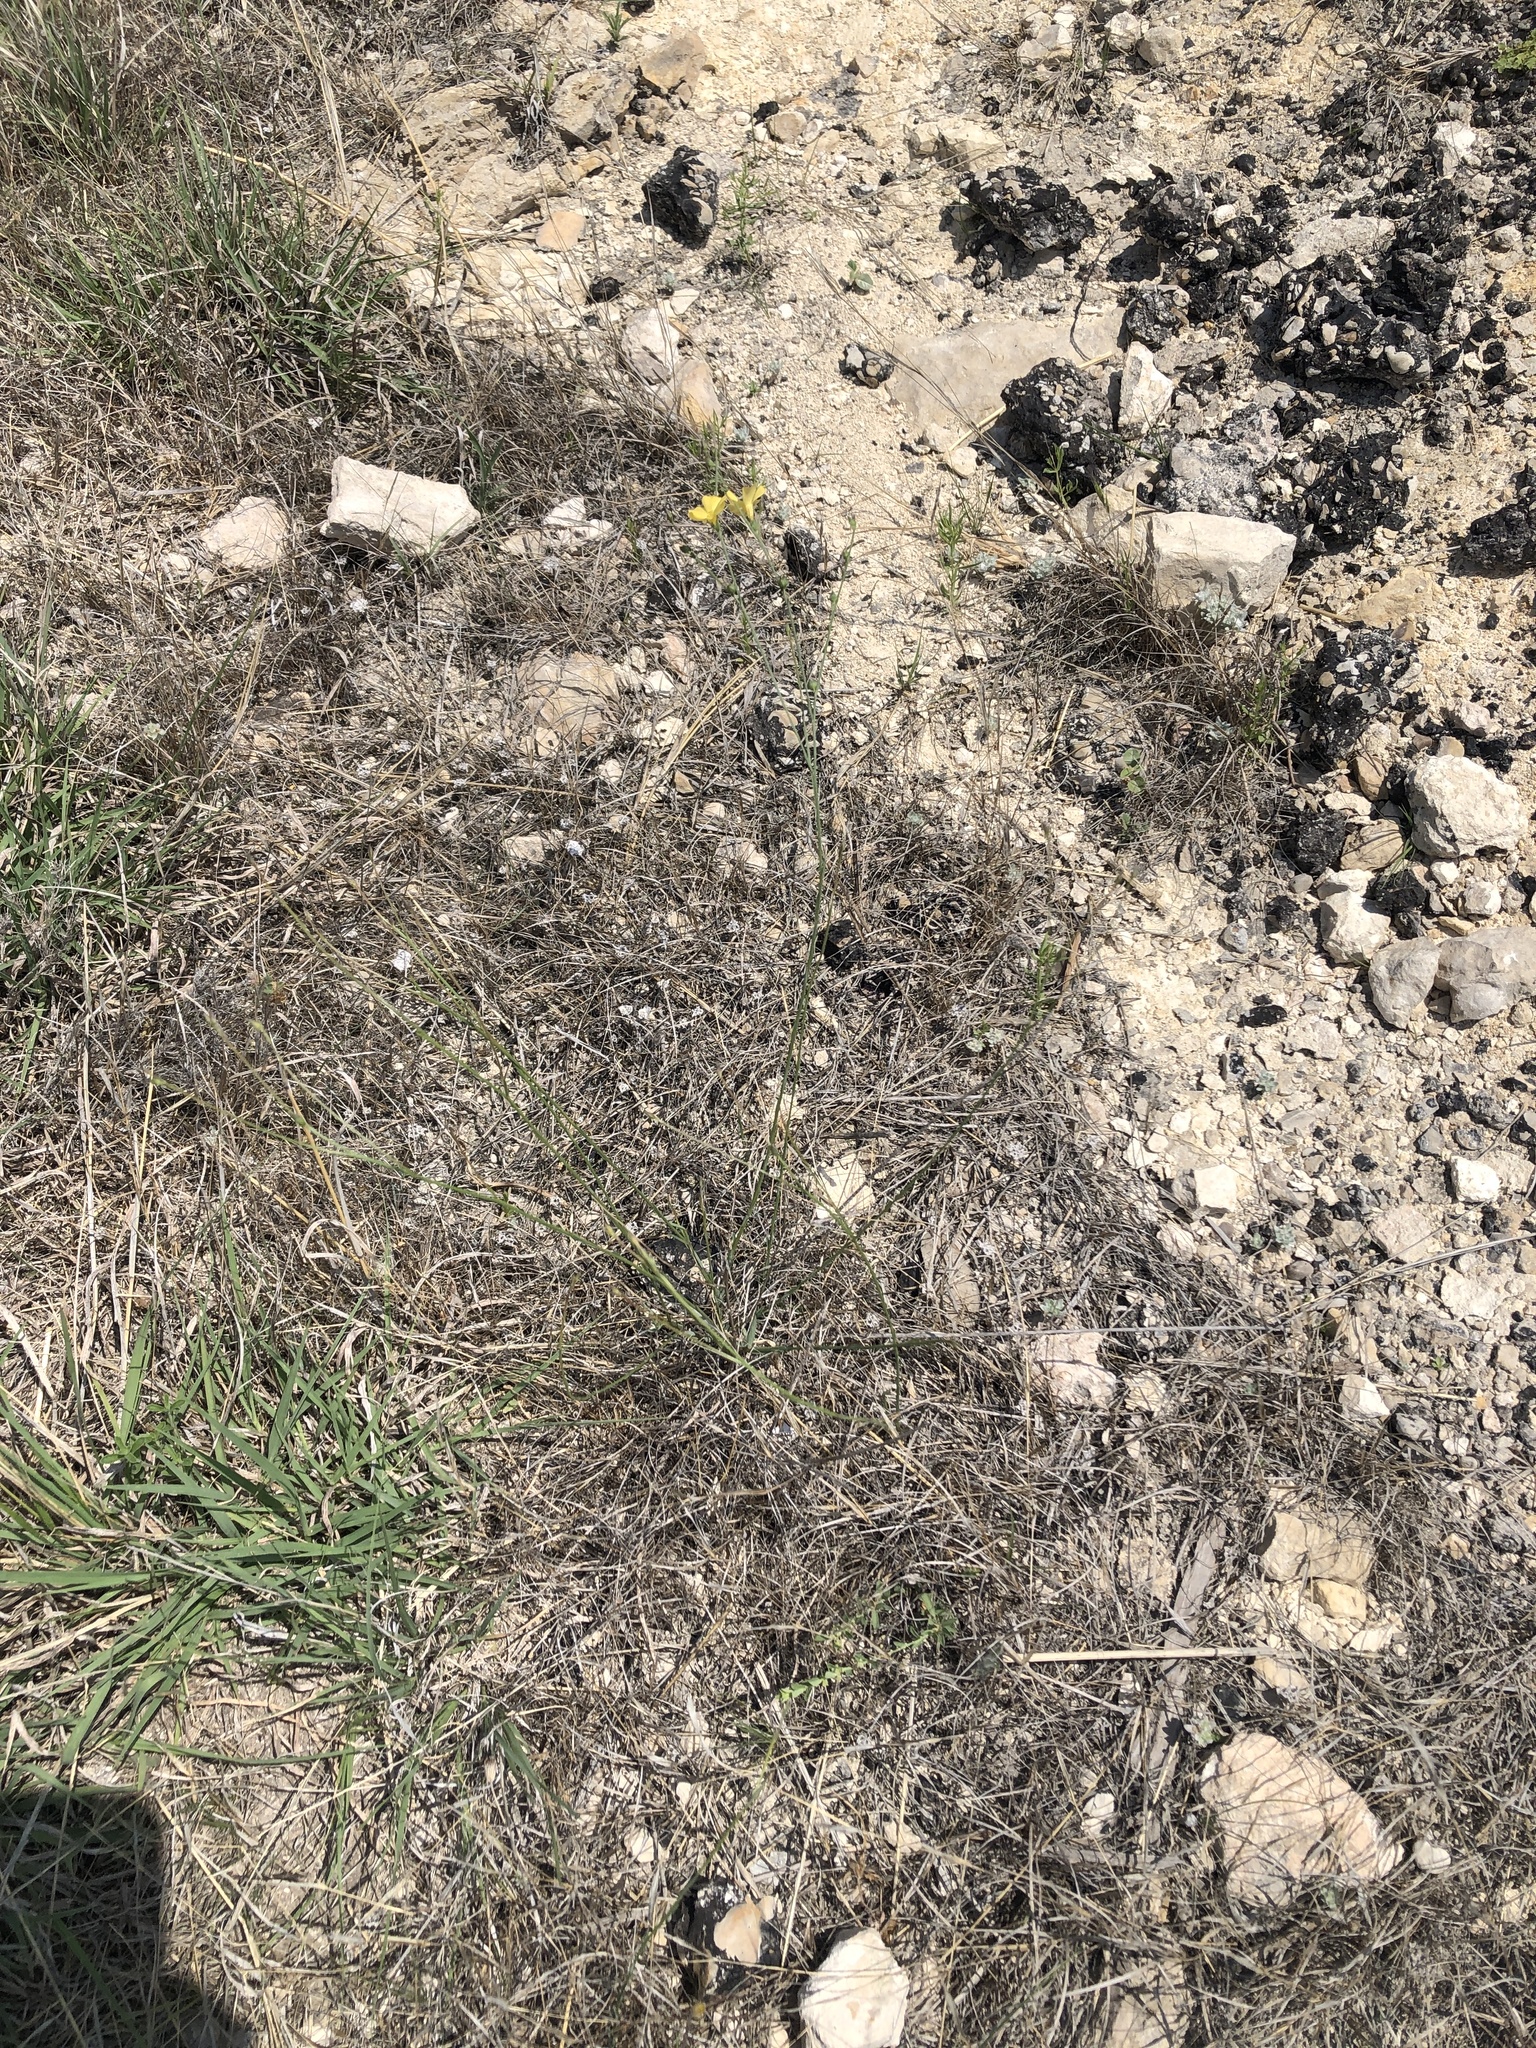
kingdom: Plantae
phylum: Tracheophyta
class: Magnoliopsida
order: Malpighiales
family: Linaceae
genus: Linum
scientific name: Linum rupestre
